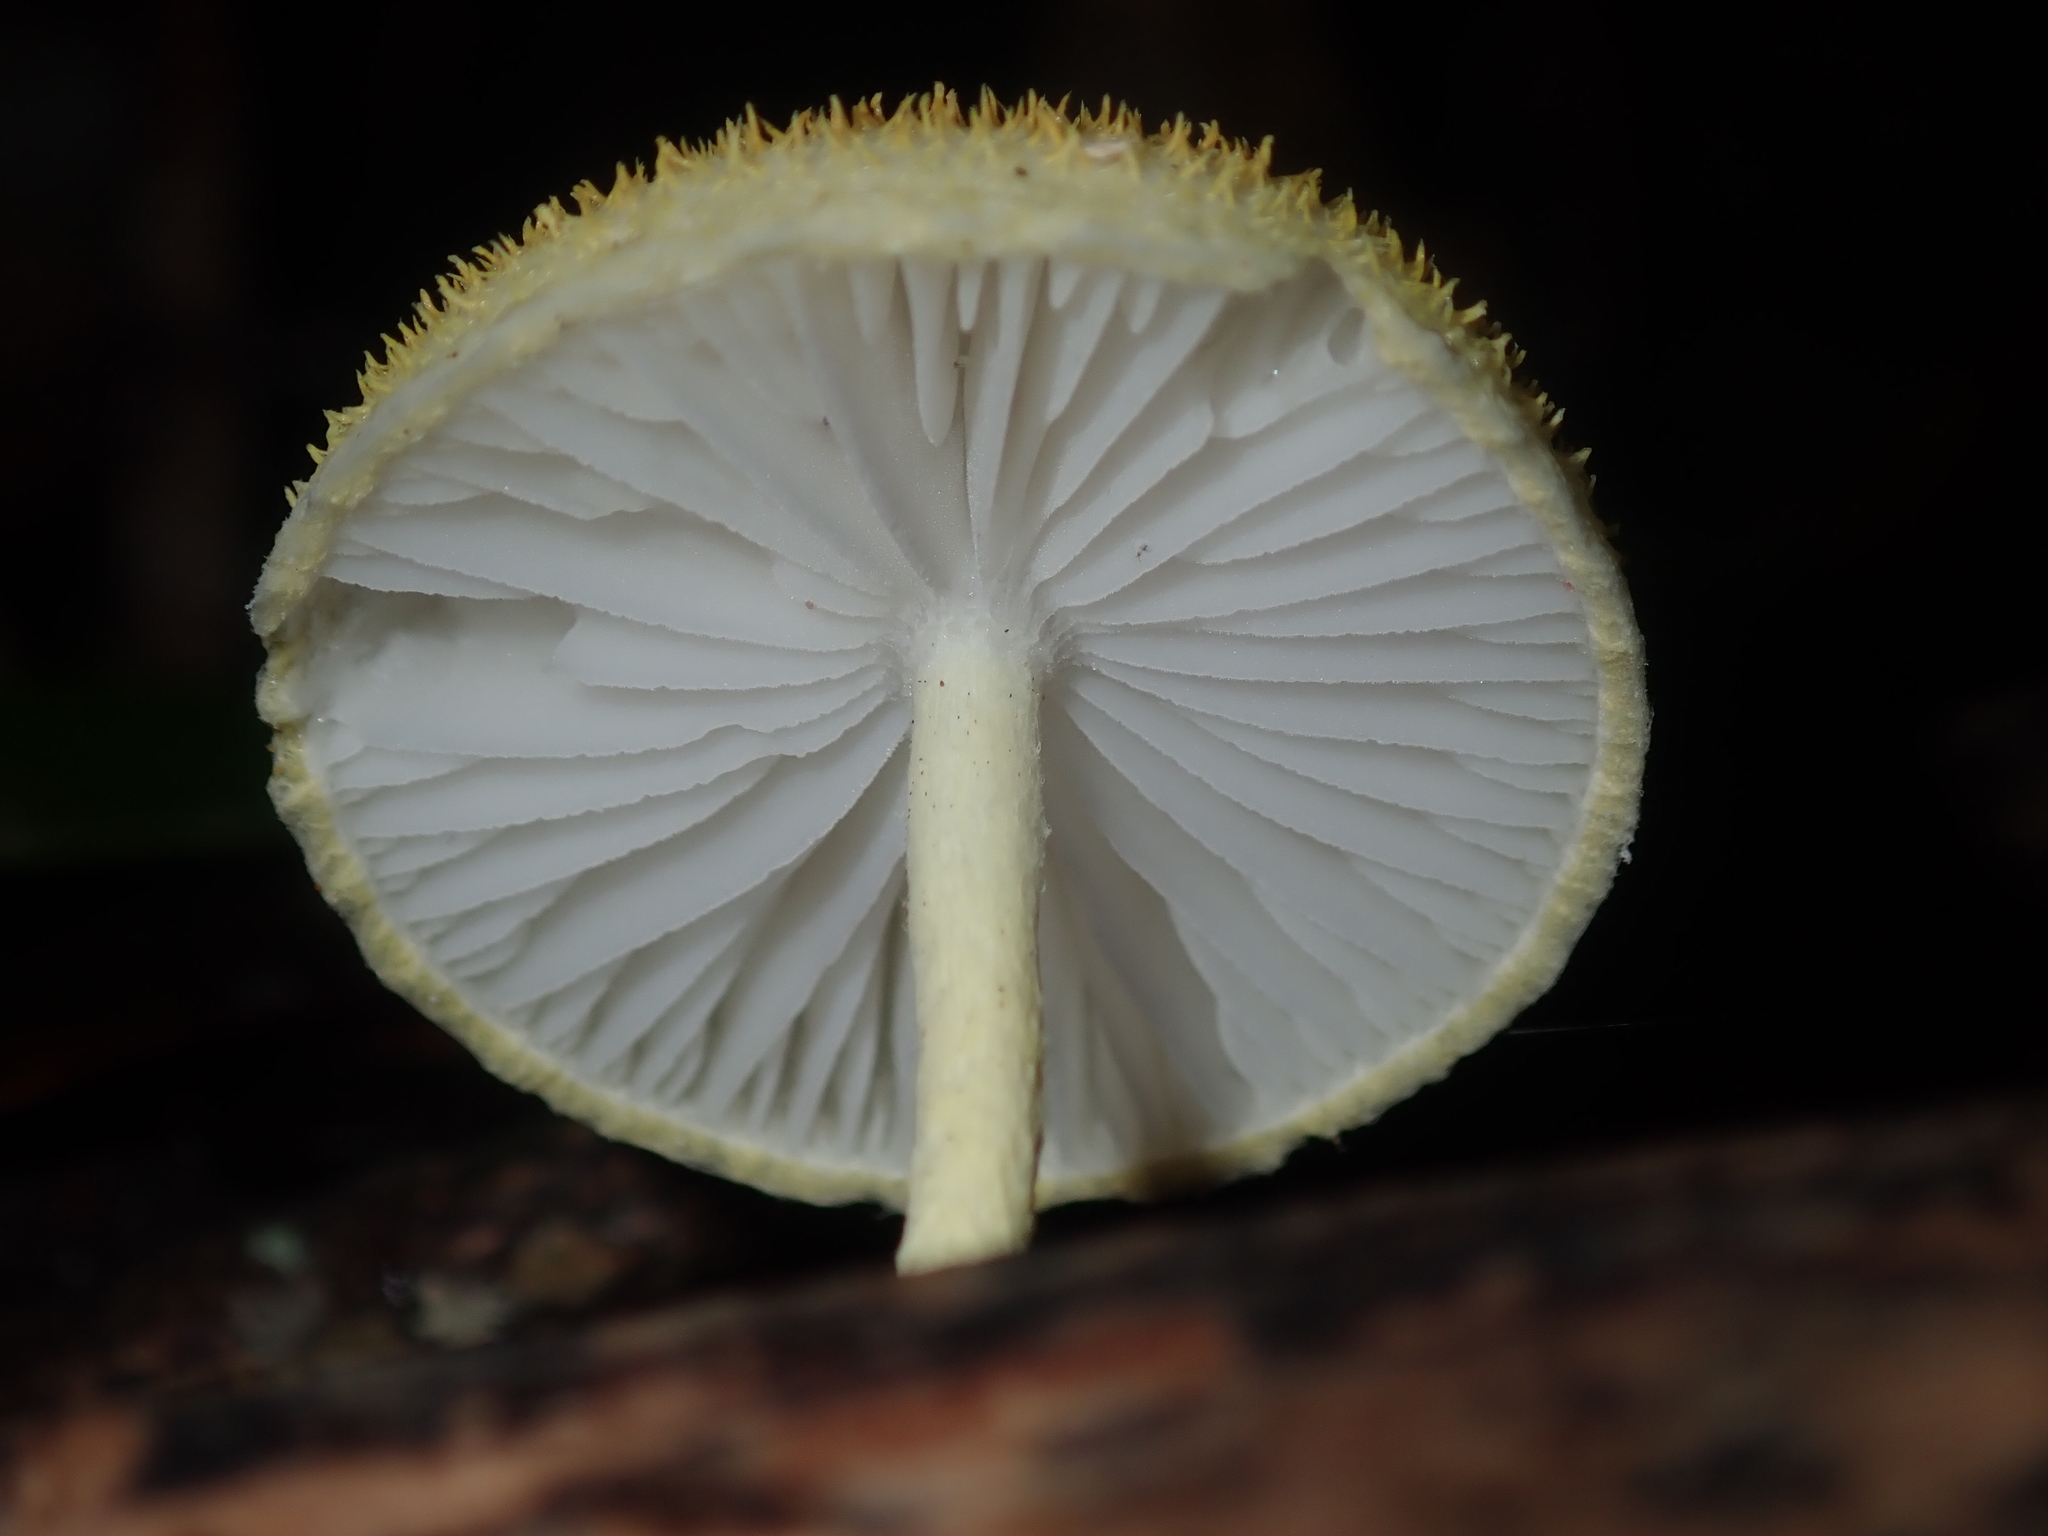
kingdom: Fungi
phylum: Basidiomycota
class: Agaricomycetes
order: Agaricales
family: Physalacriaceae
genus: Cyptotrama
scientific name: Cyptotrama asprata
